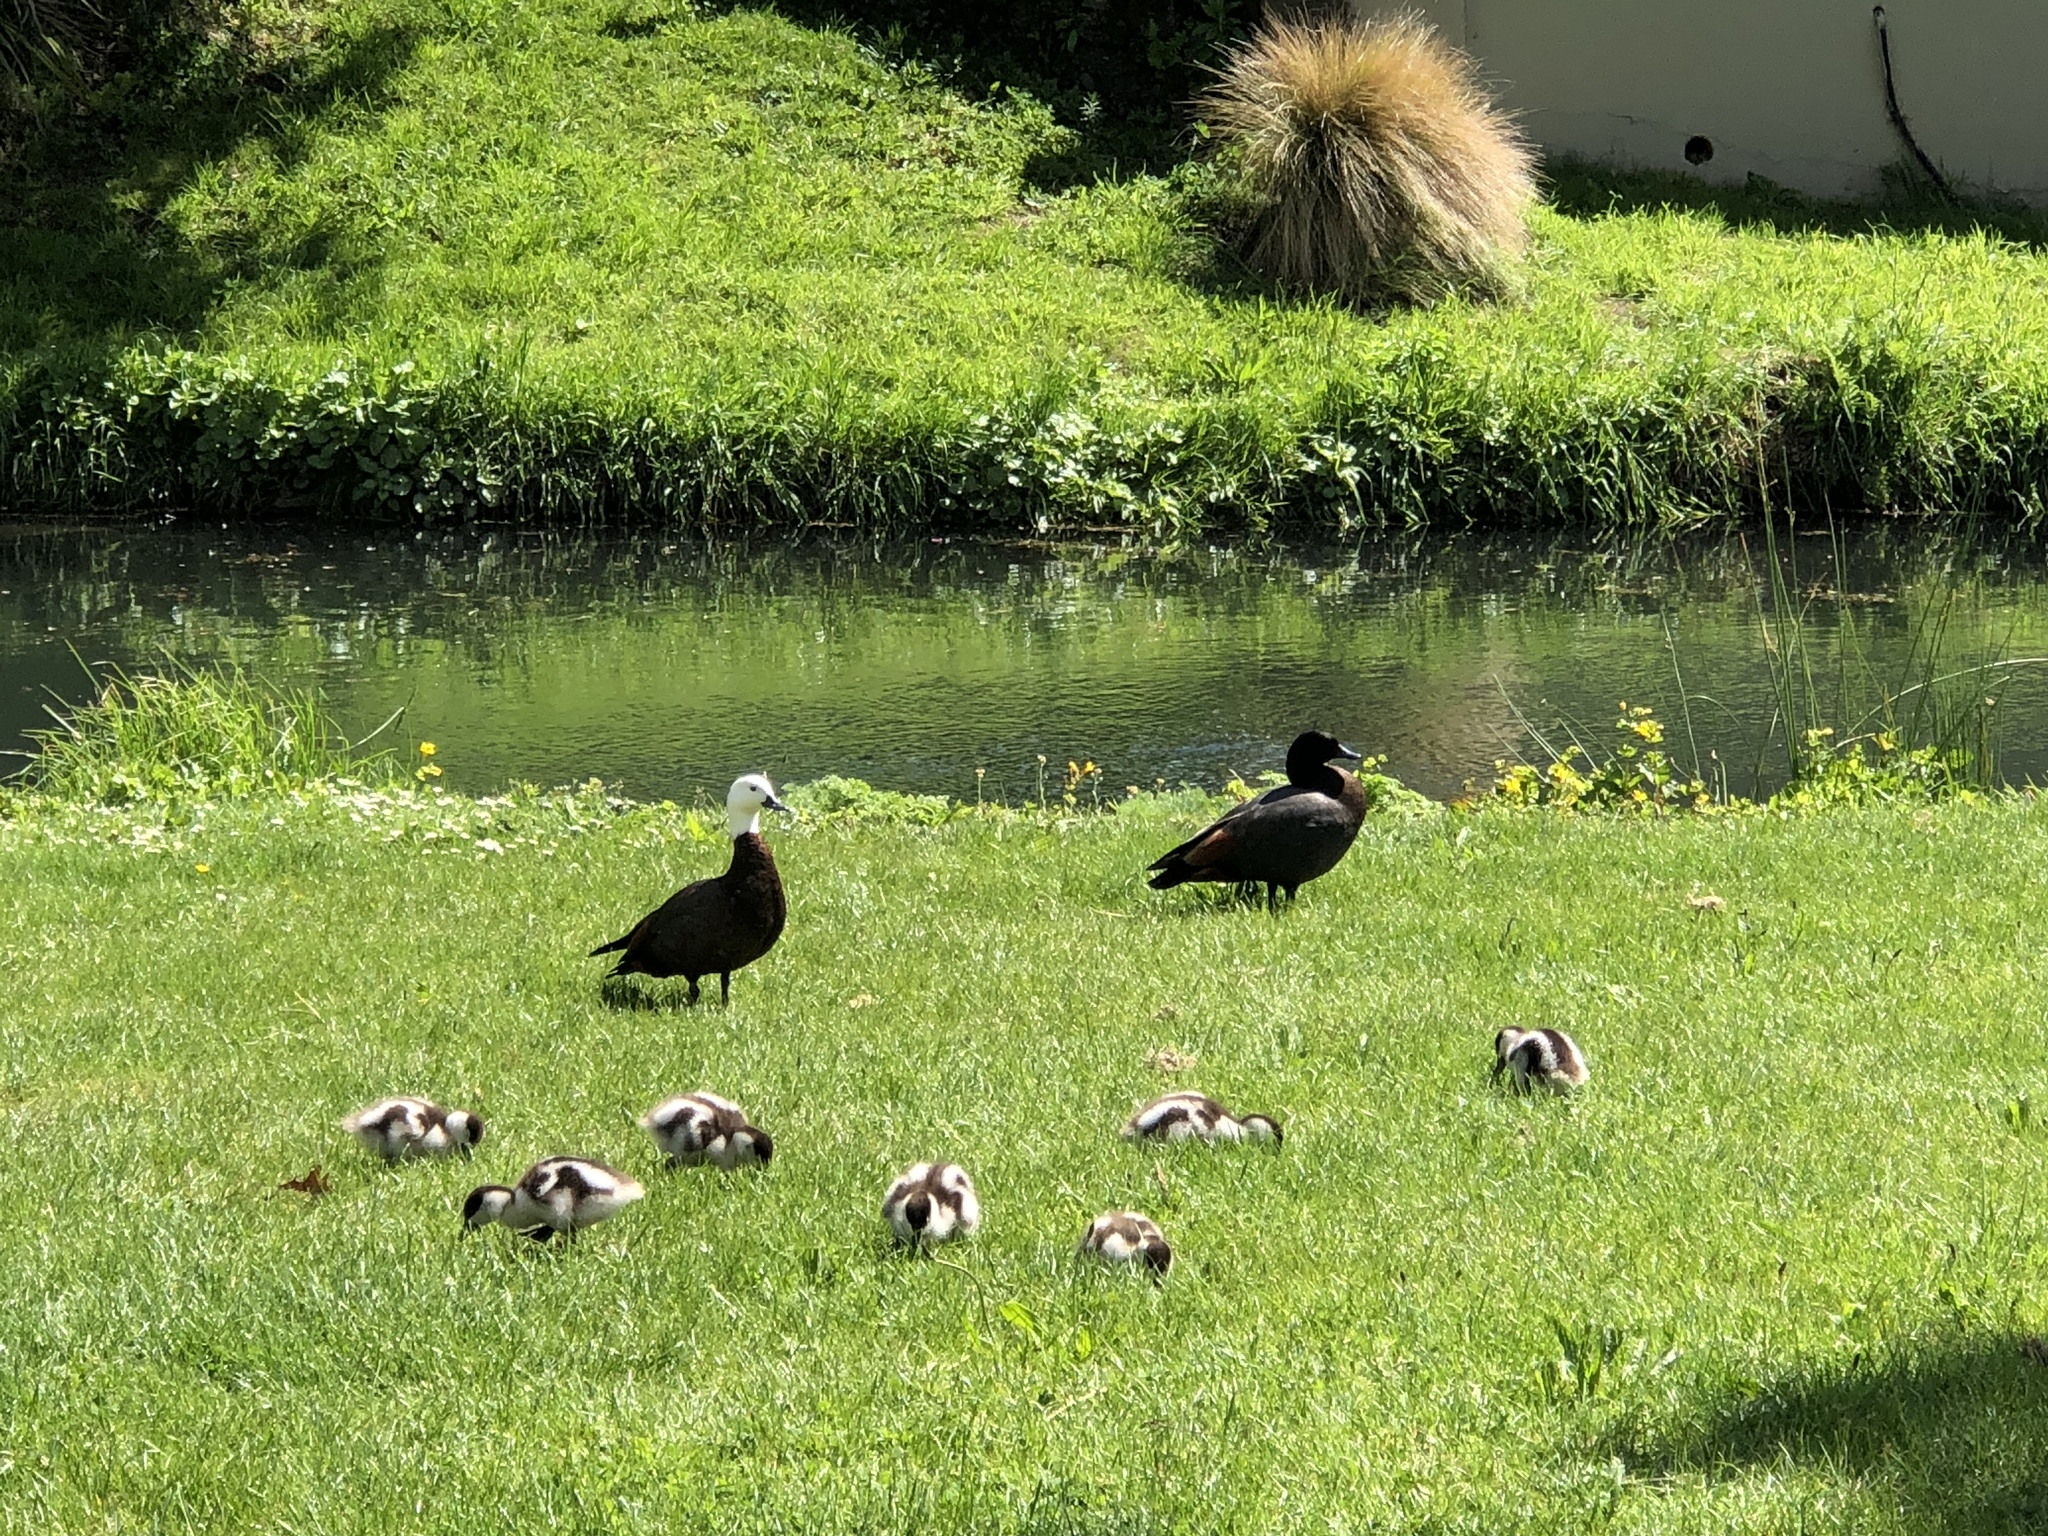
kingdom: Animalia
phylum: Chordata
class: Aves
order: Anseriformes
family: Anatidae
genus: Tadorna
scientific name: Tadorna variegata
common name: Paradise shelduck
